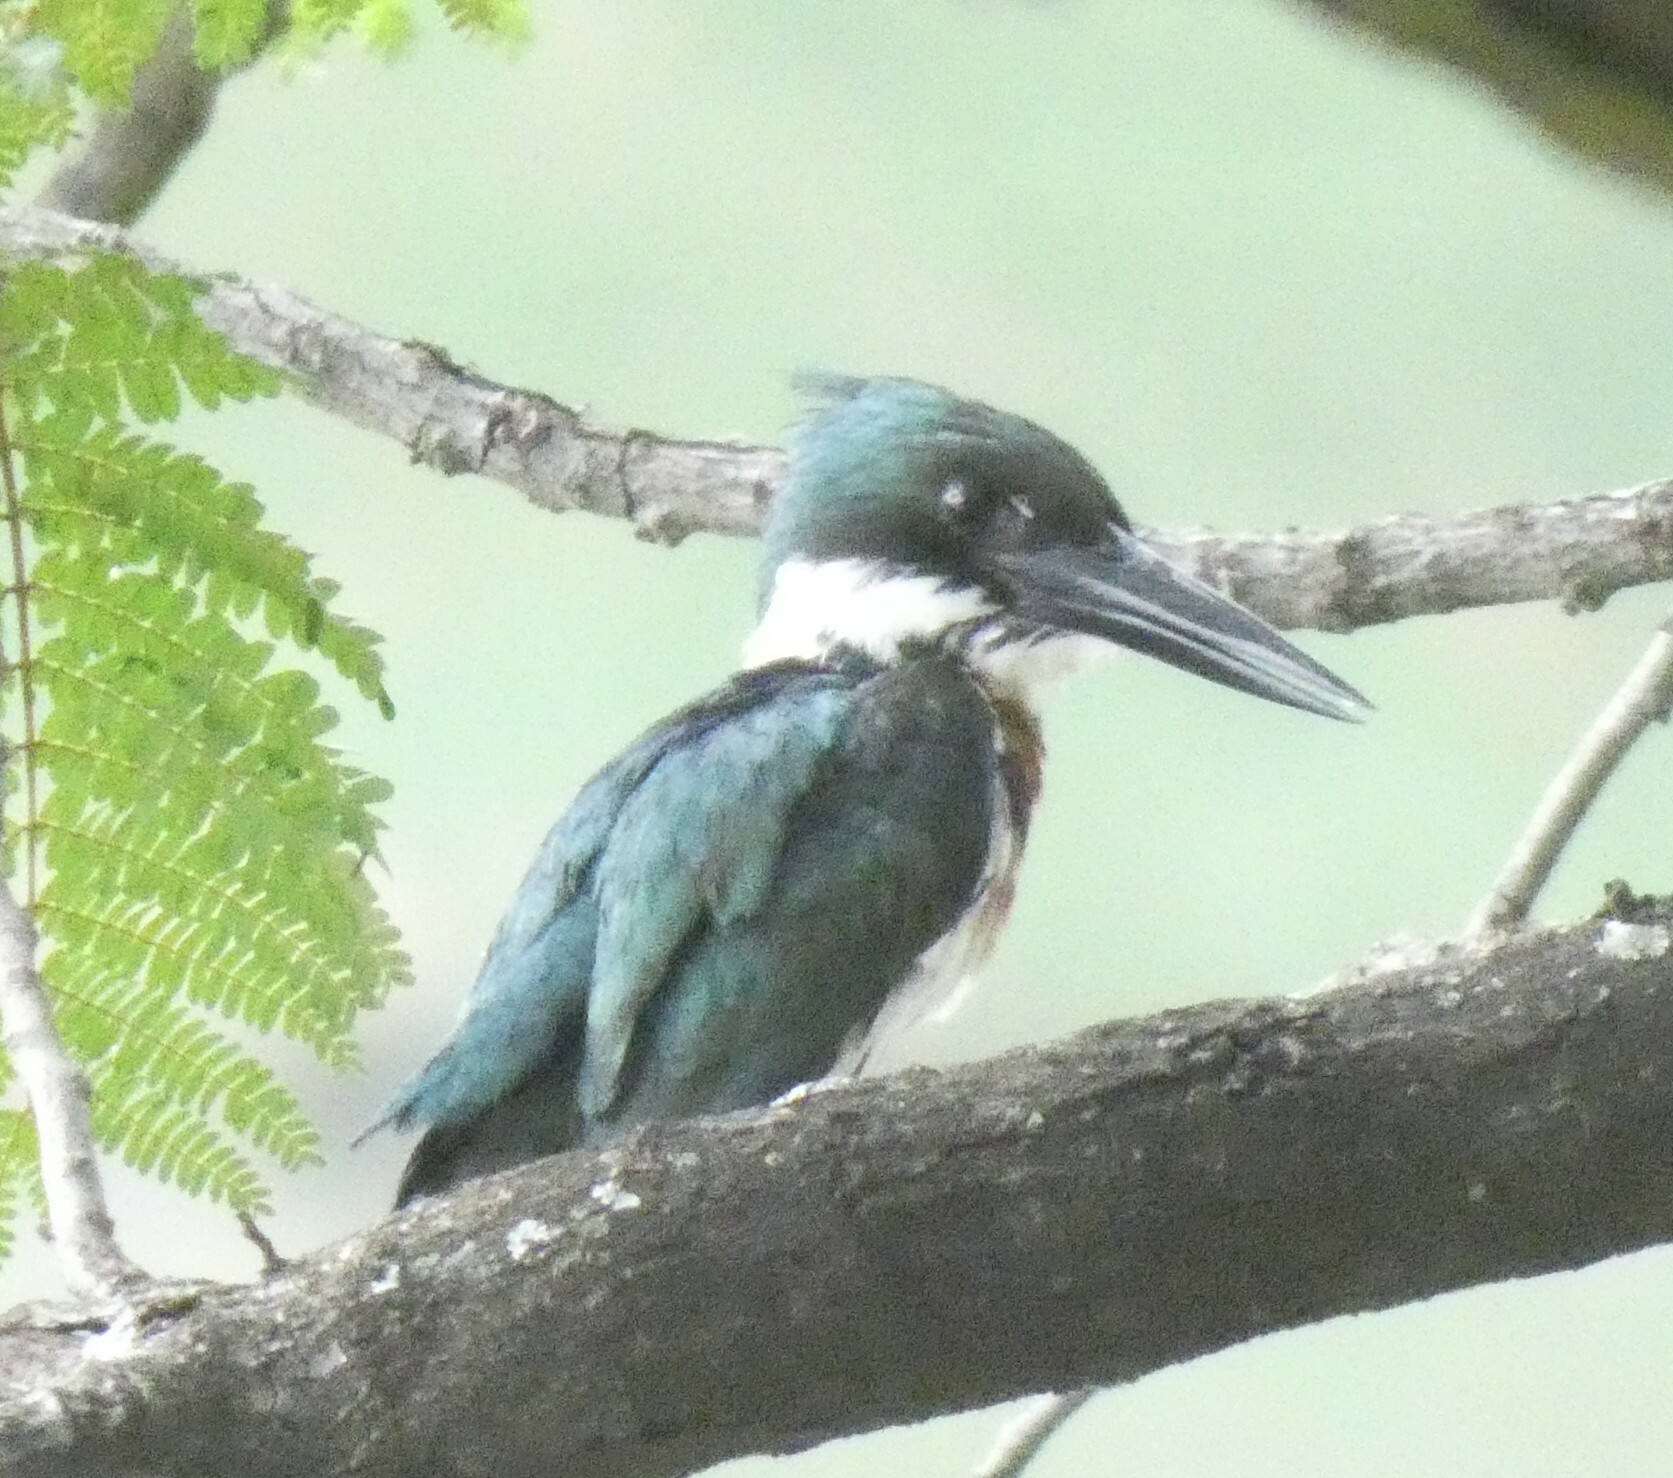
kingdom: Animalia
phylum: Chordata
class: Aves
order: Coraciiformes
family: Alcedinidae
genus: Chloroceryle
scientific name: Chloroceryle amazona
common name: Amazon kingfisher
